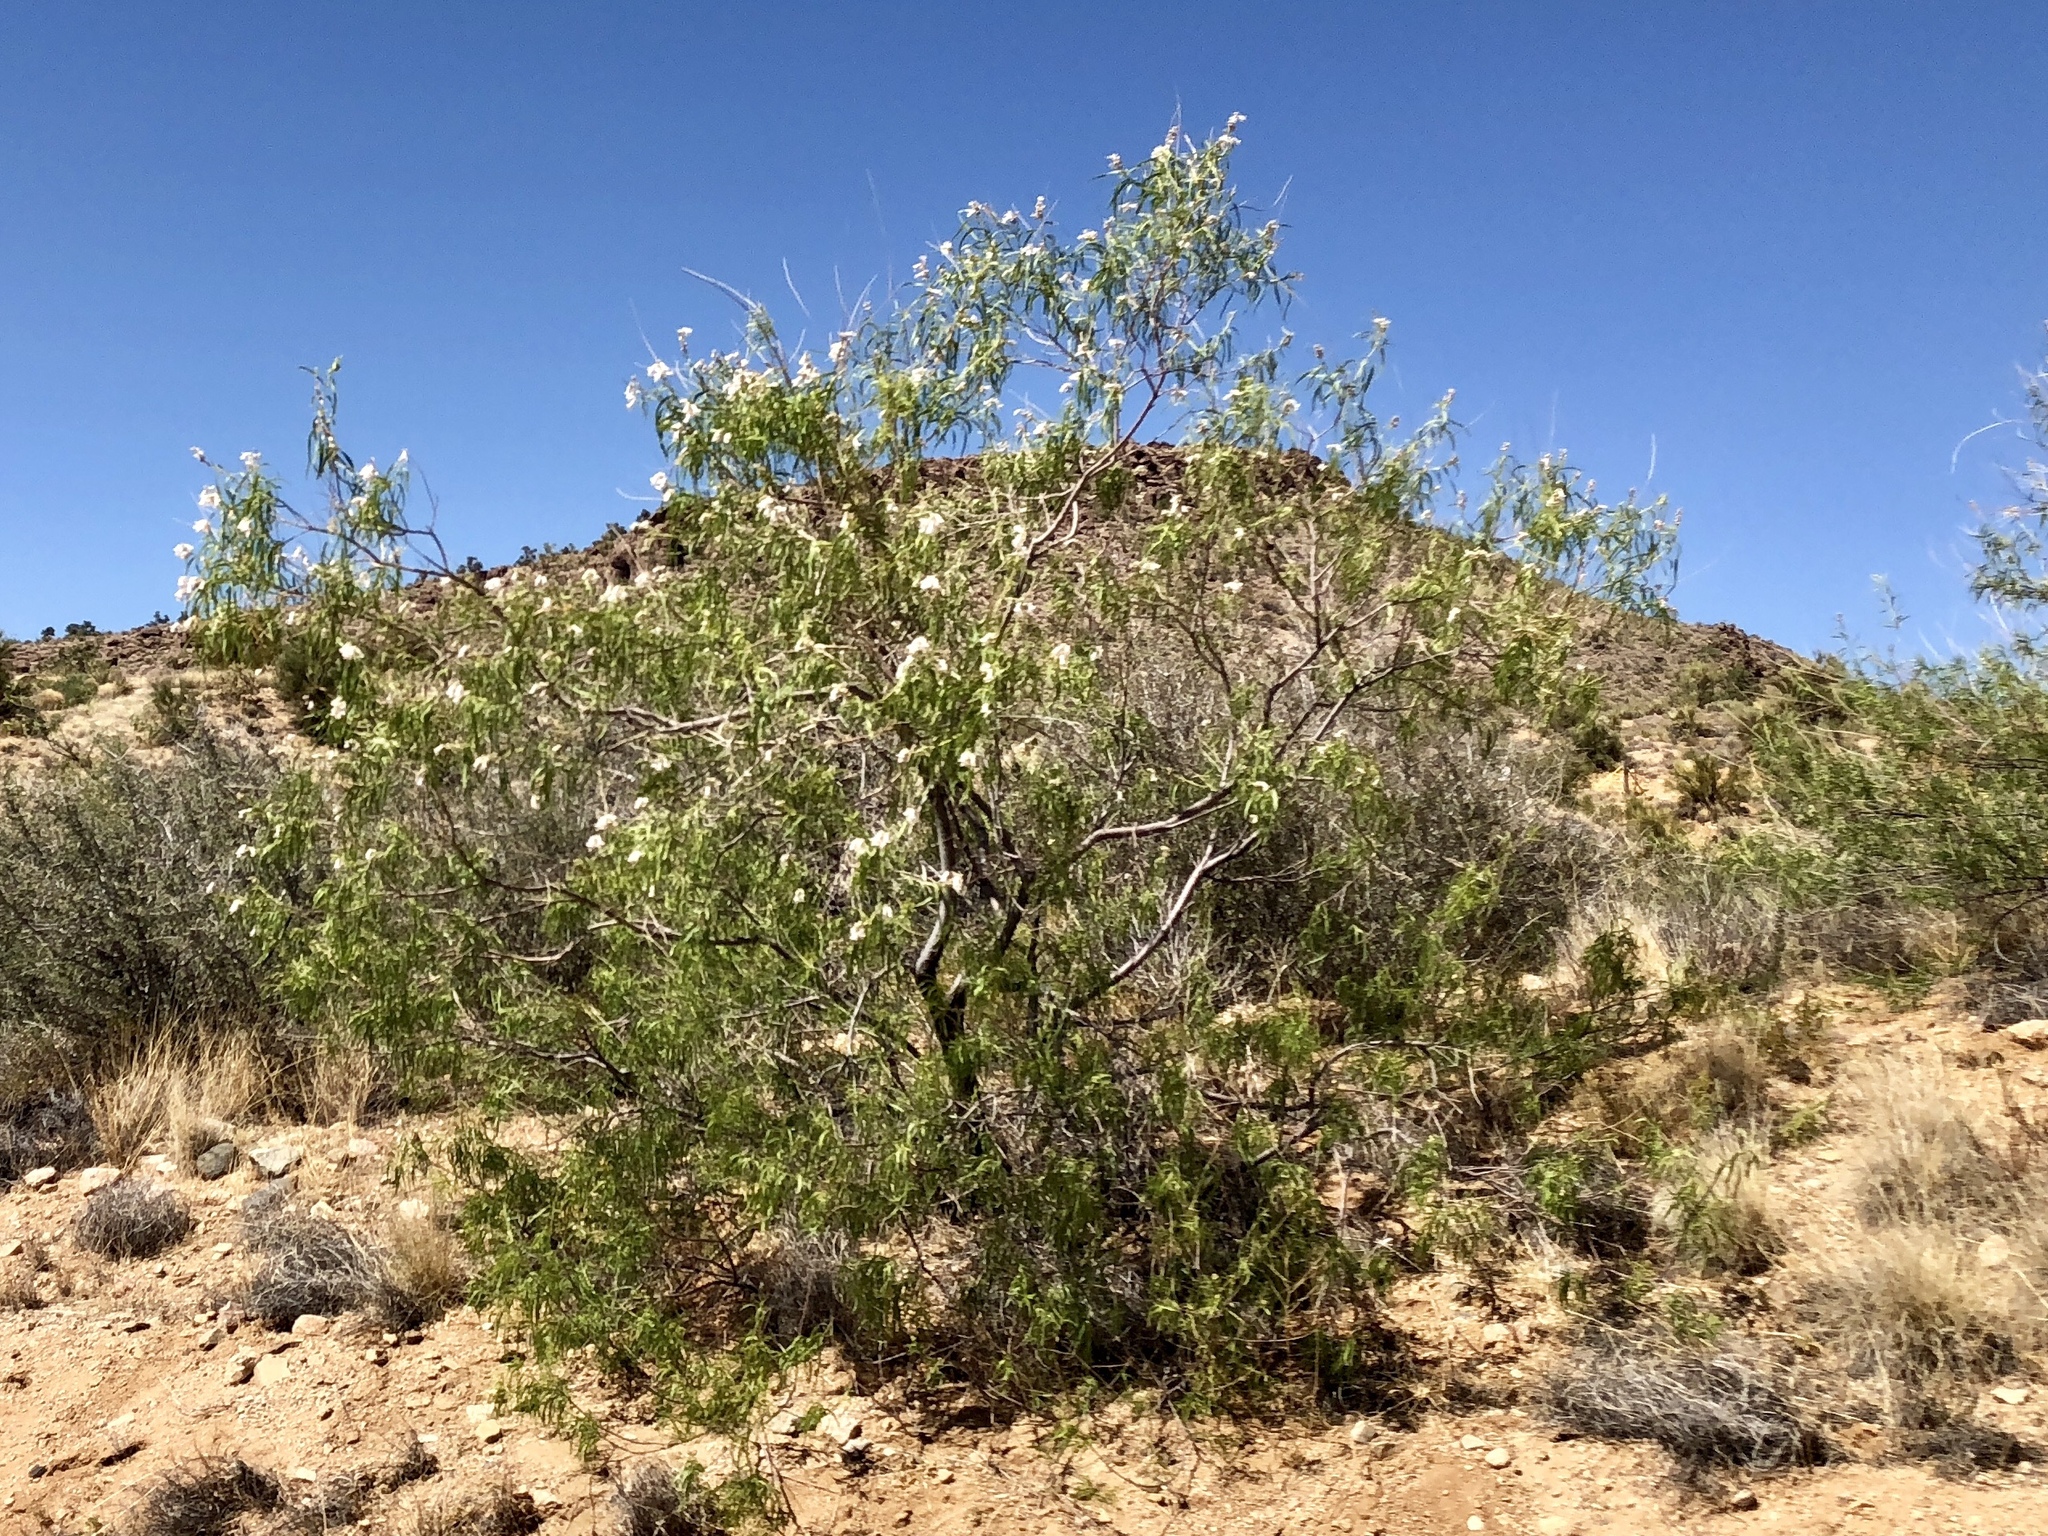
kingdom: Plantae
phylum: Tracheophyta
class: Magnoliopsida
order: Lamiales
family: Bignoniaceae
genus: Chilopsis
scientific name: Chilopsis linearis
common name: Desert-willow
